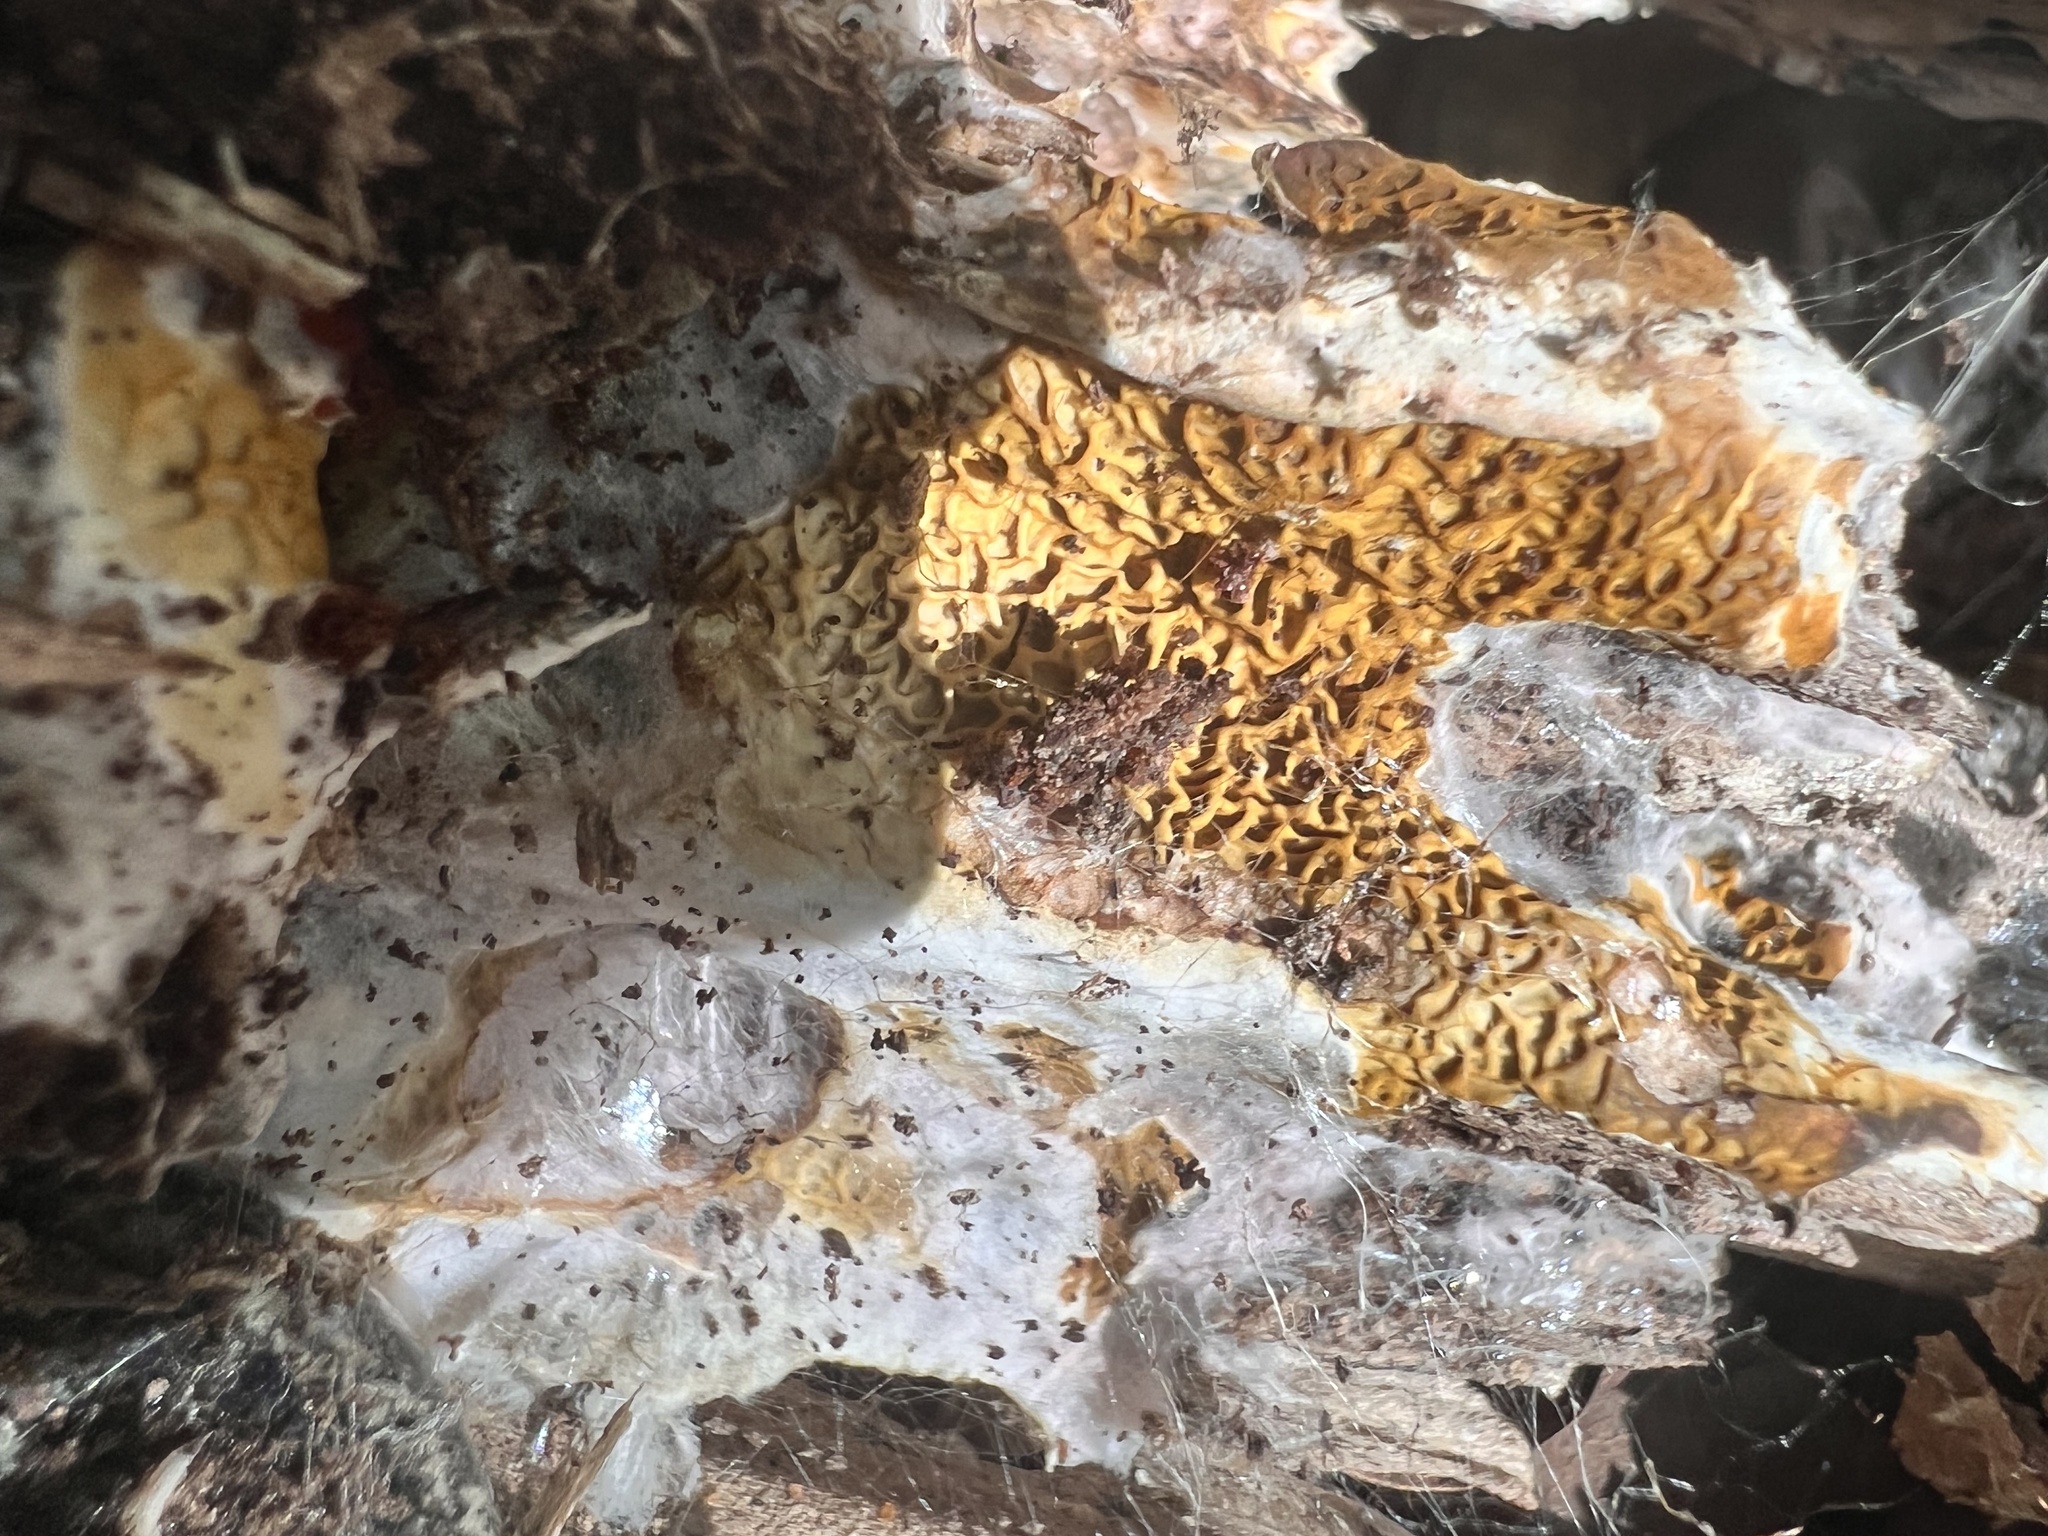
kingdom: Fungi
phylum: Basidiomycota
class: Agaricomycetes
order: Boletales
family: Serpulaceae
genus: Serpula
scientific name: Serpula himantioides
